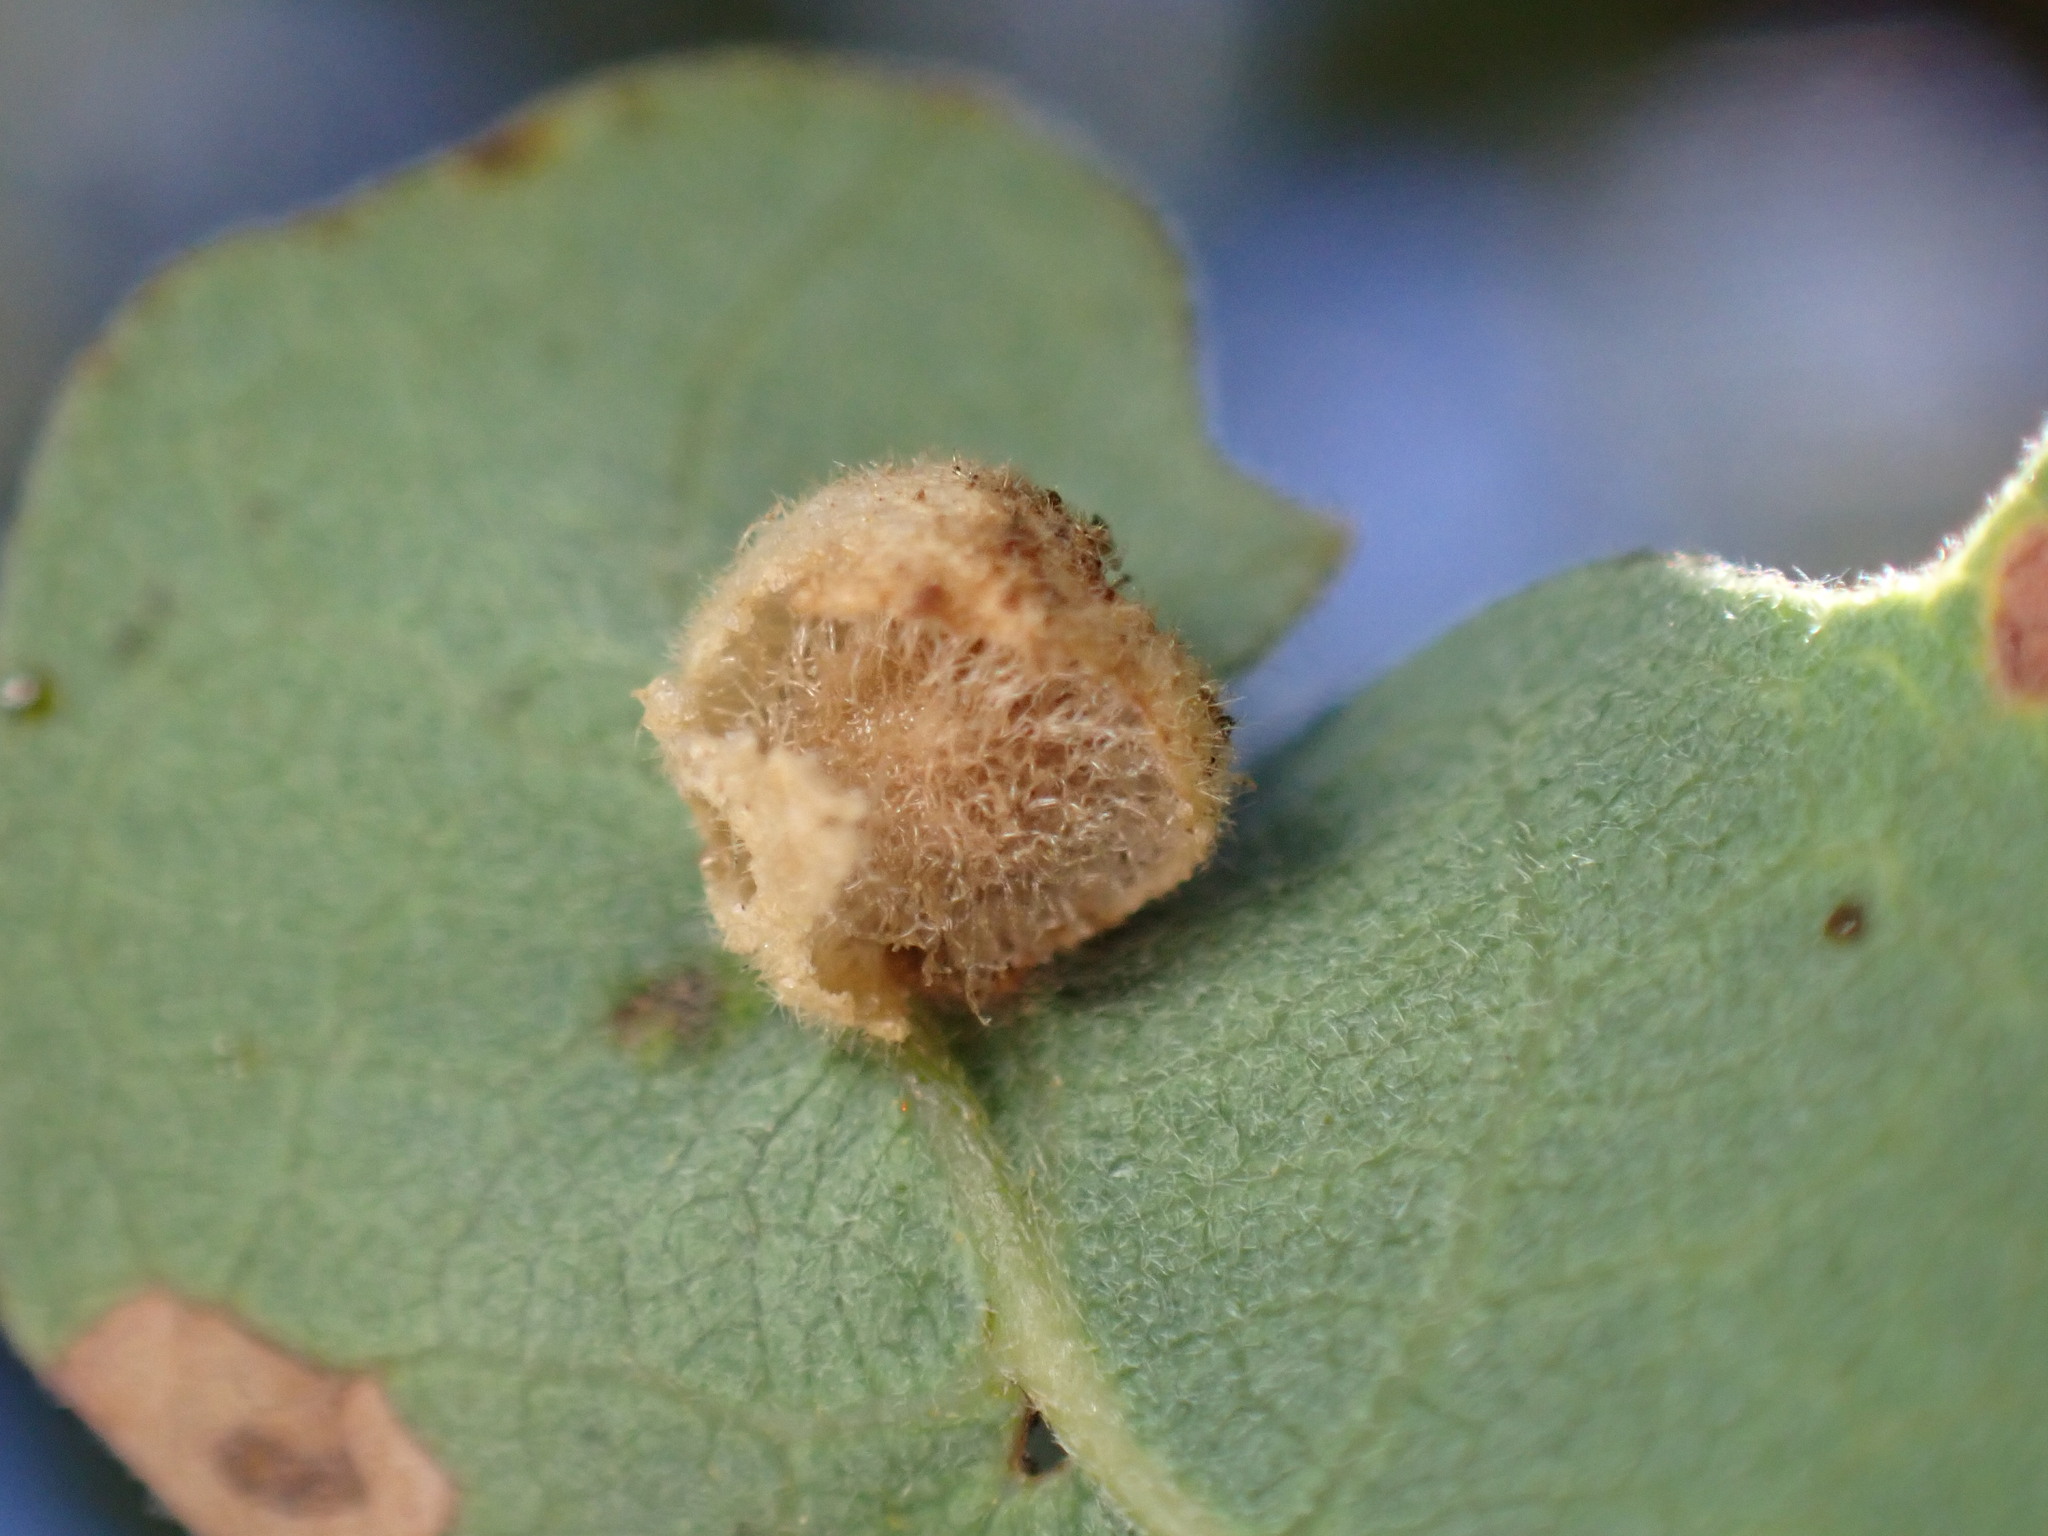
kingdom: Animalia
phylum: Arthropoda
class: Insecta
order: Hymenoptera
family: Cynipidae
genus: Andricus
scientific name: Andricus
